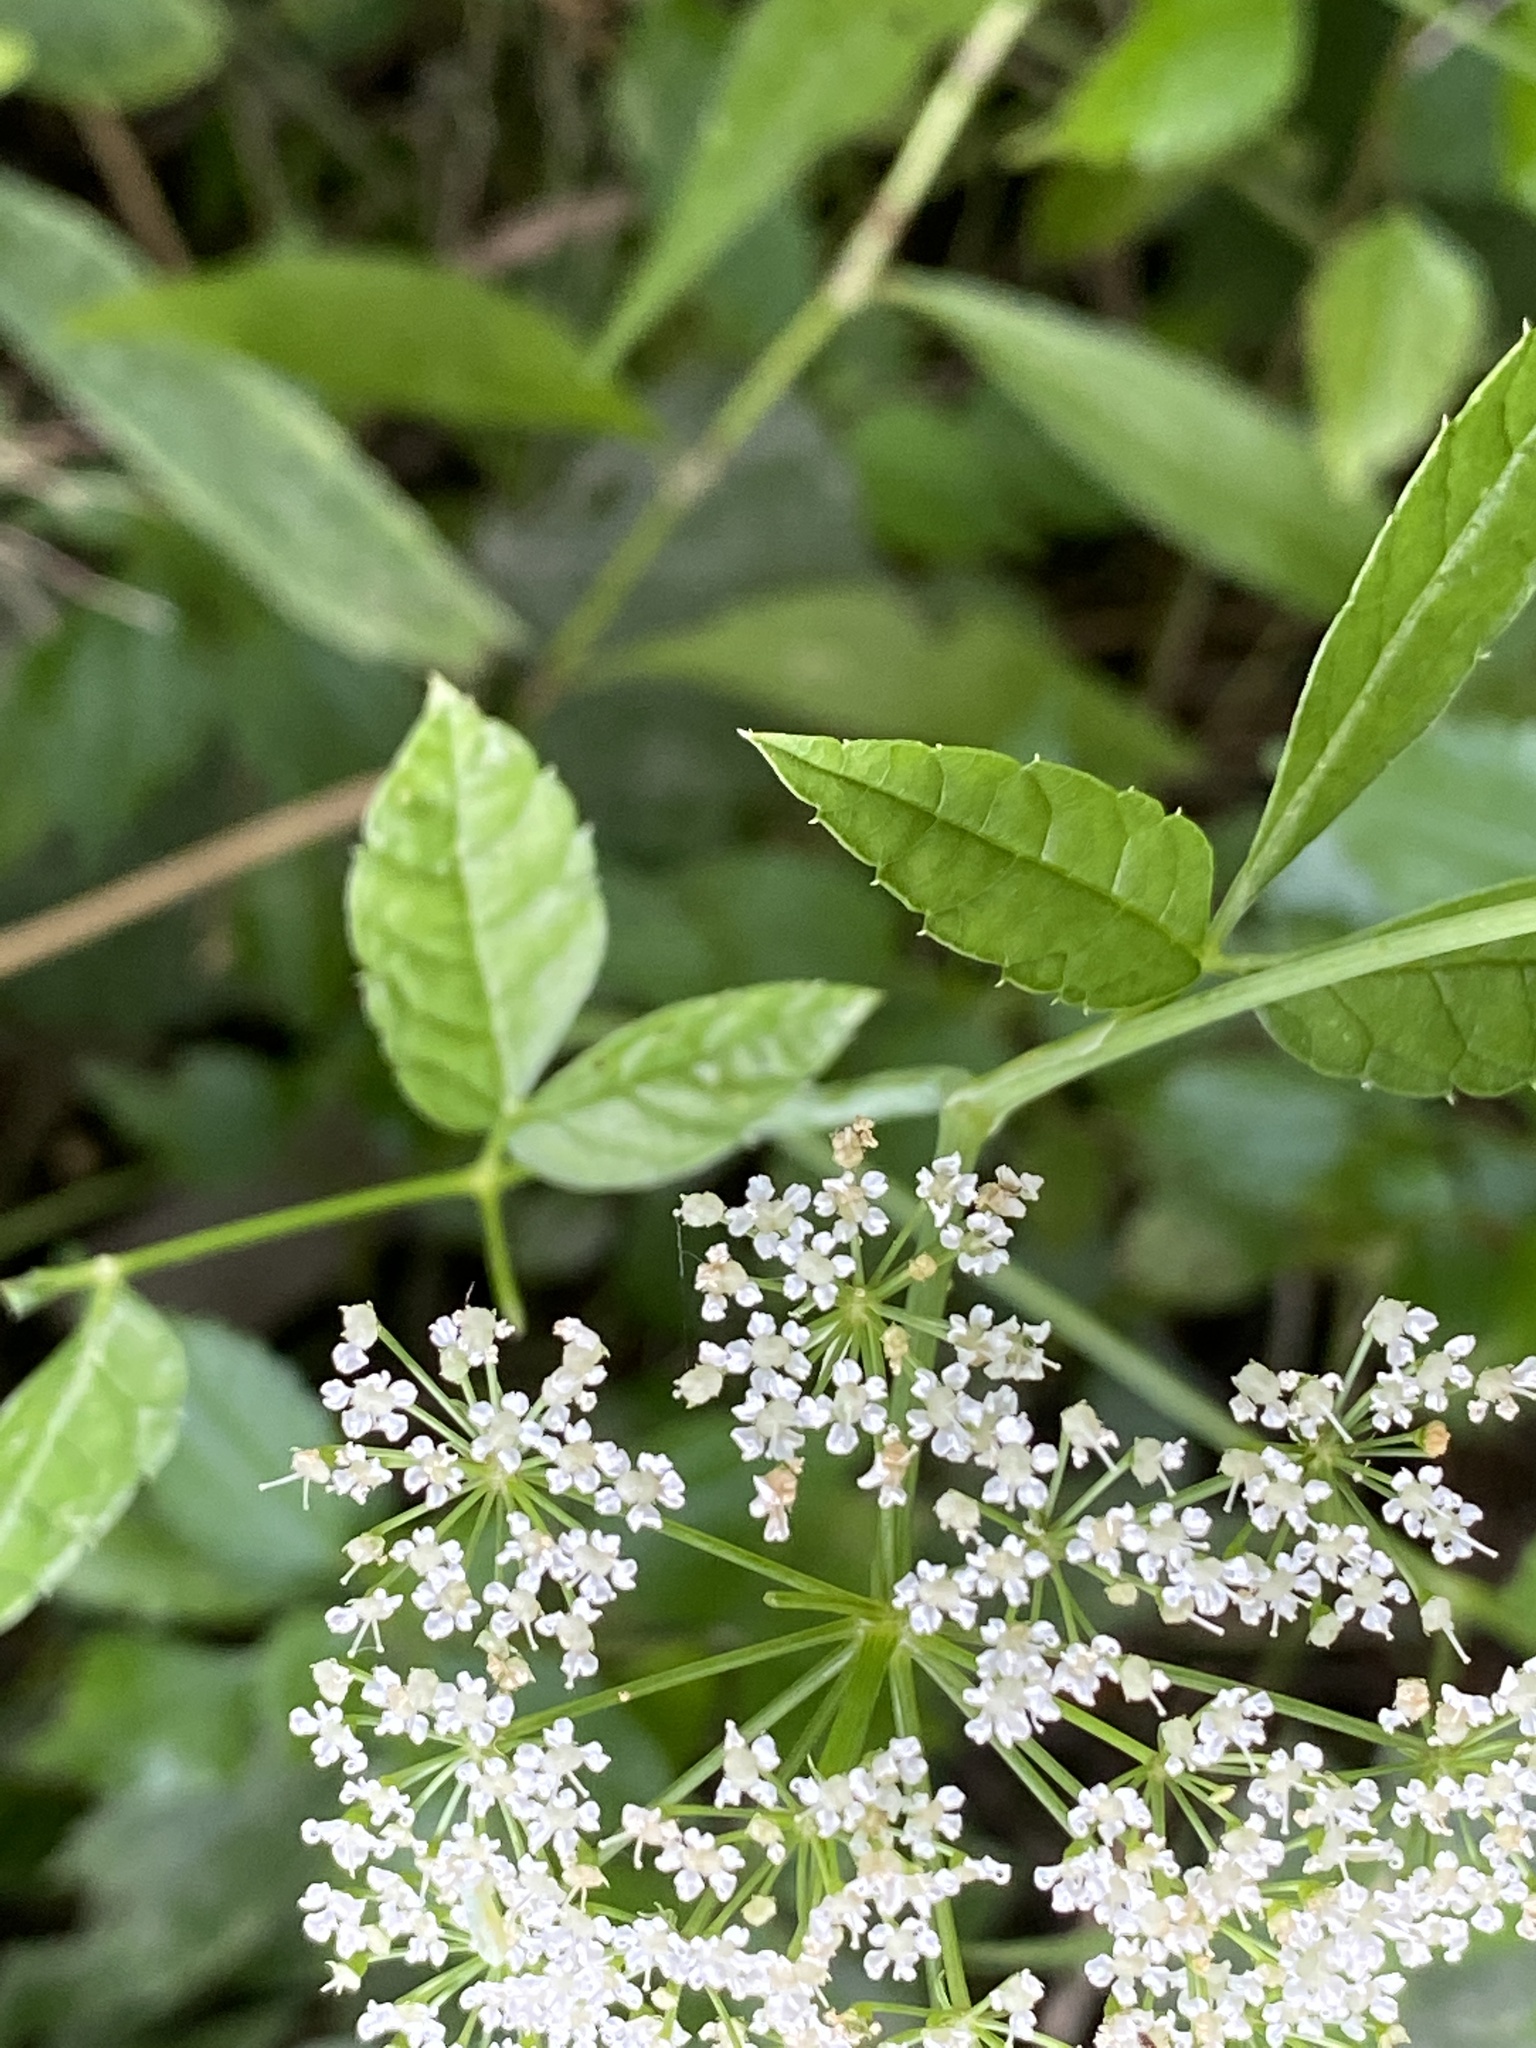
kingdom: Plantae
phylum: Tracheophyta
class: Magnoliopsida
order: Apiales
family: Apiaceae
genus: Cicuta
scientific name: Cicuta maculata
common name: Spotted cowbane
